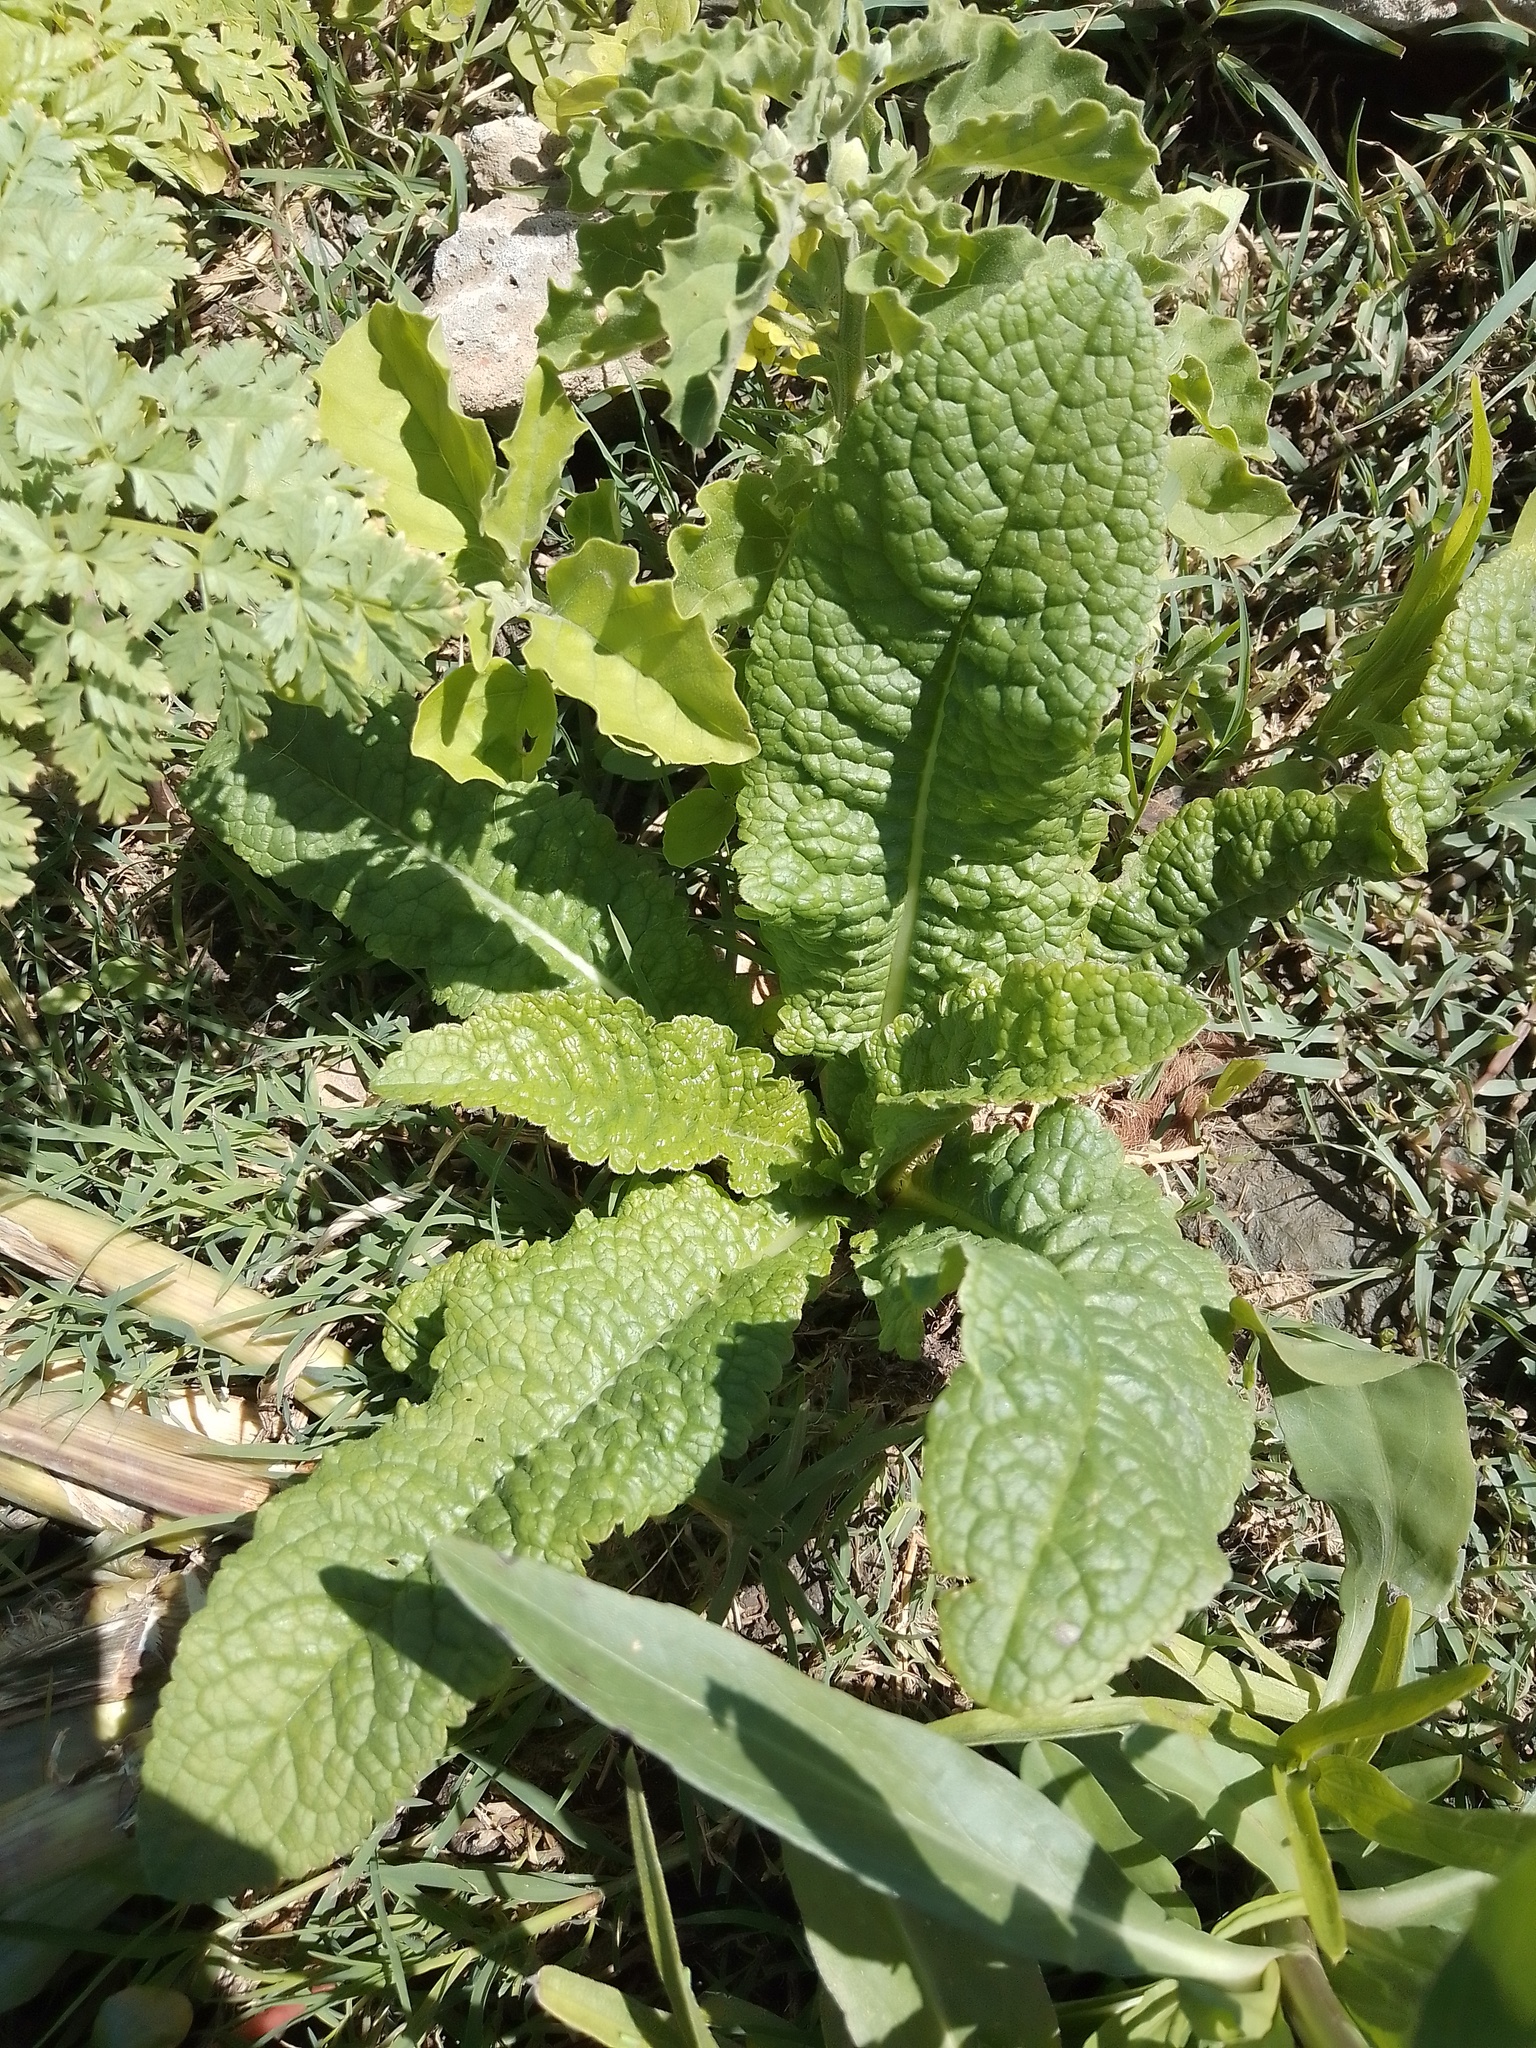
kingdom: Plantae
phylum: Tracheophyta
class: Magnoliopsida
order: Dipsacales
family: Caprifoliaceae
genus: Dipsacus
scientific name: Dipsacus fullonum
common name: Teasel
